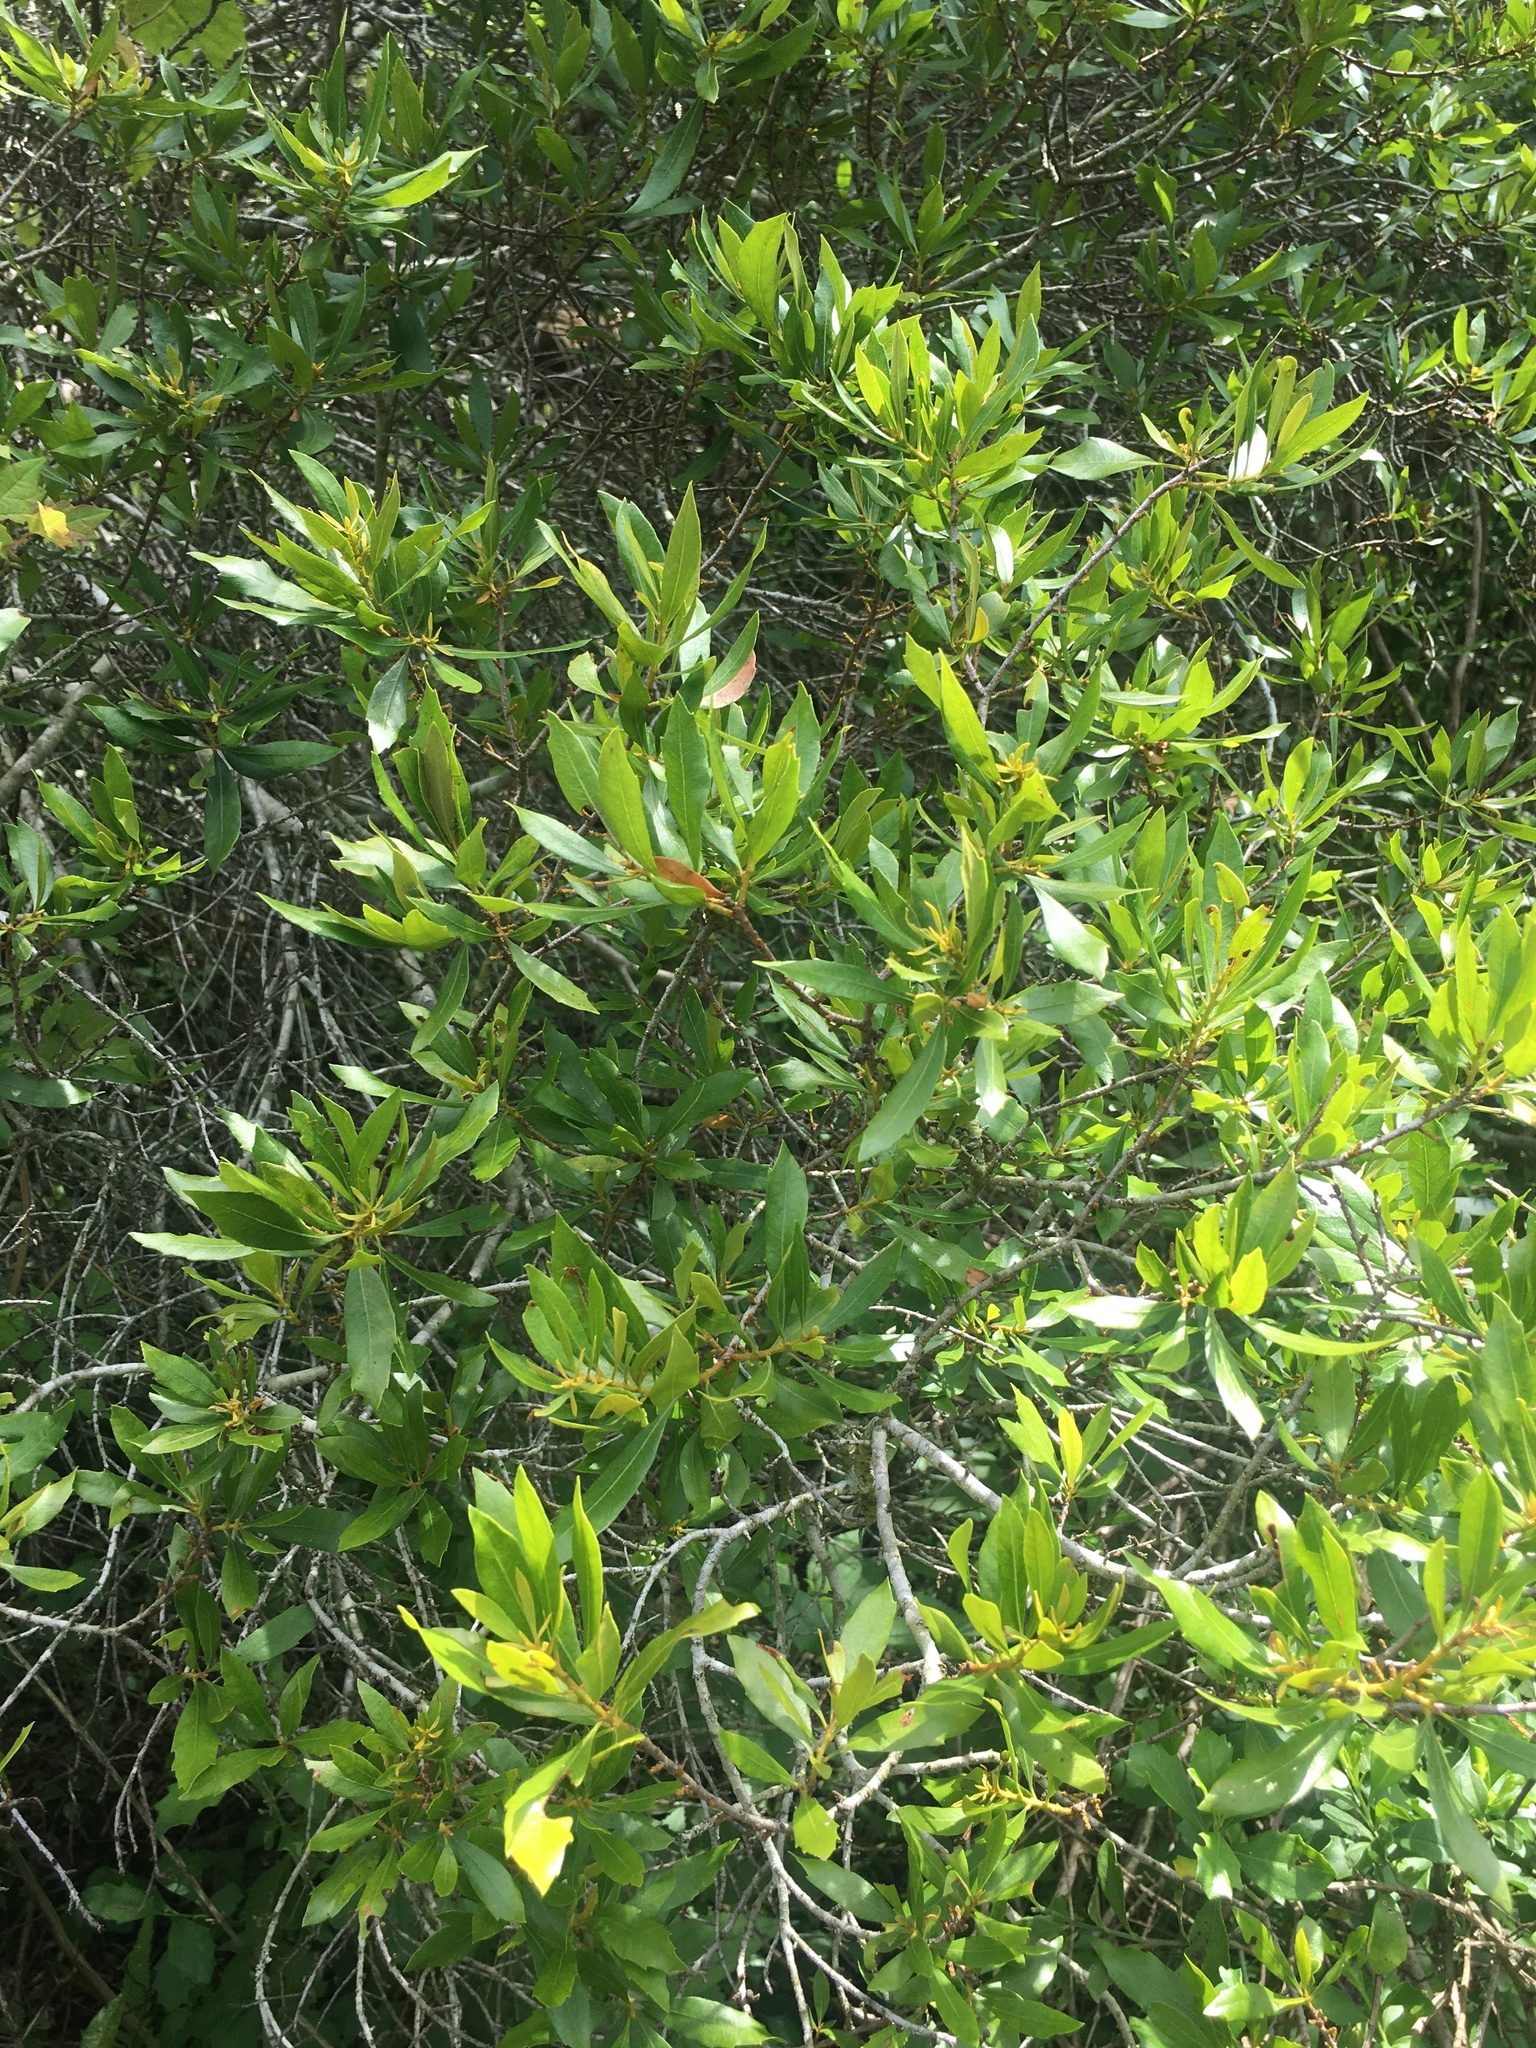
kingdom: Plantae
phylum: Tracheophyta
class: Magnoliopsida
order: Fagales
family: Myricaceae
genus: Morella
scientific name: Morella cerifera
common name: Wax myrtle
